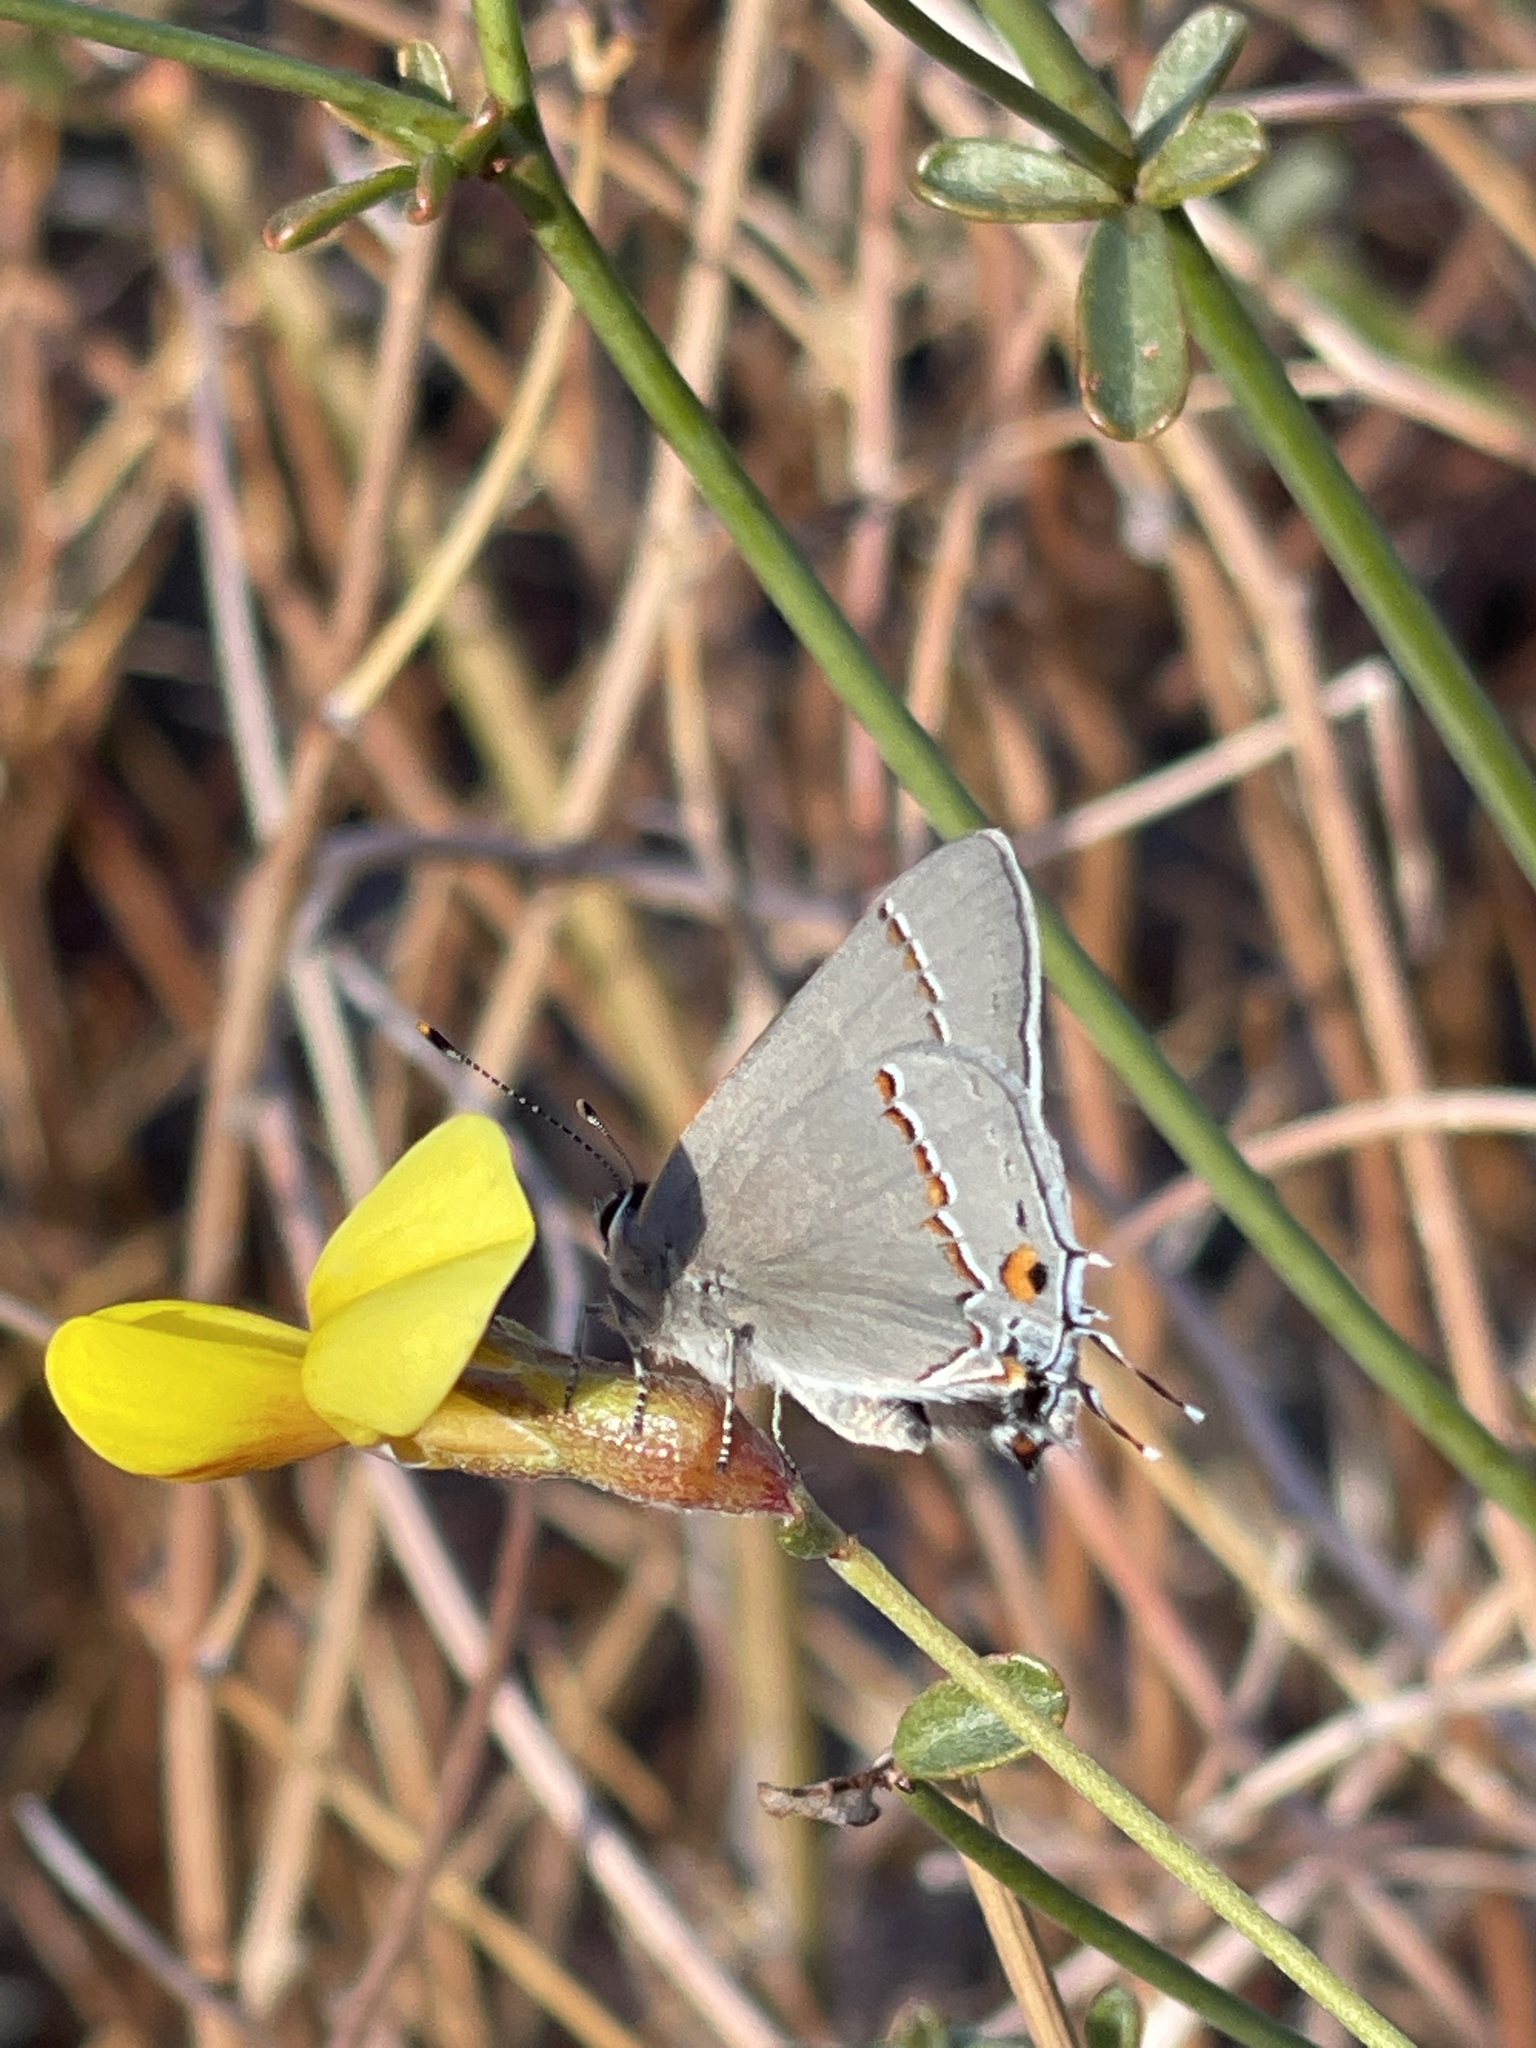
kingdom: Animalia
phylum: Arthropoda
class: Insecta
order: Lepidoptera
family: Lycaenidae
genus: Strymon
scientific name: Strymon melinus
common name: Gray hairstreak
